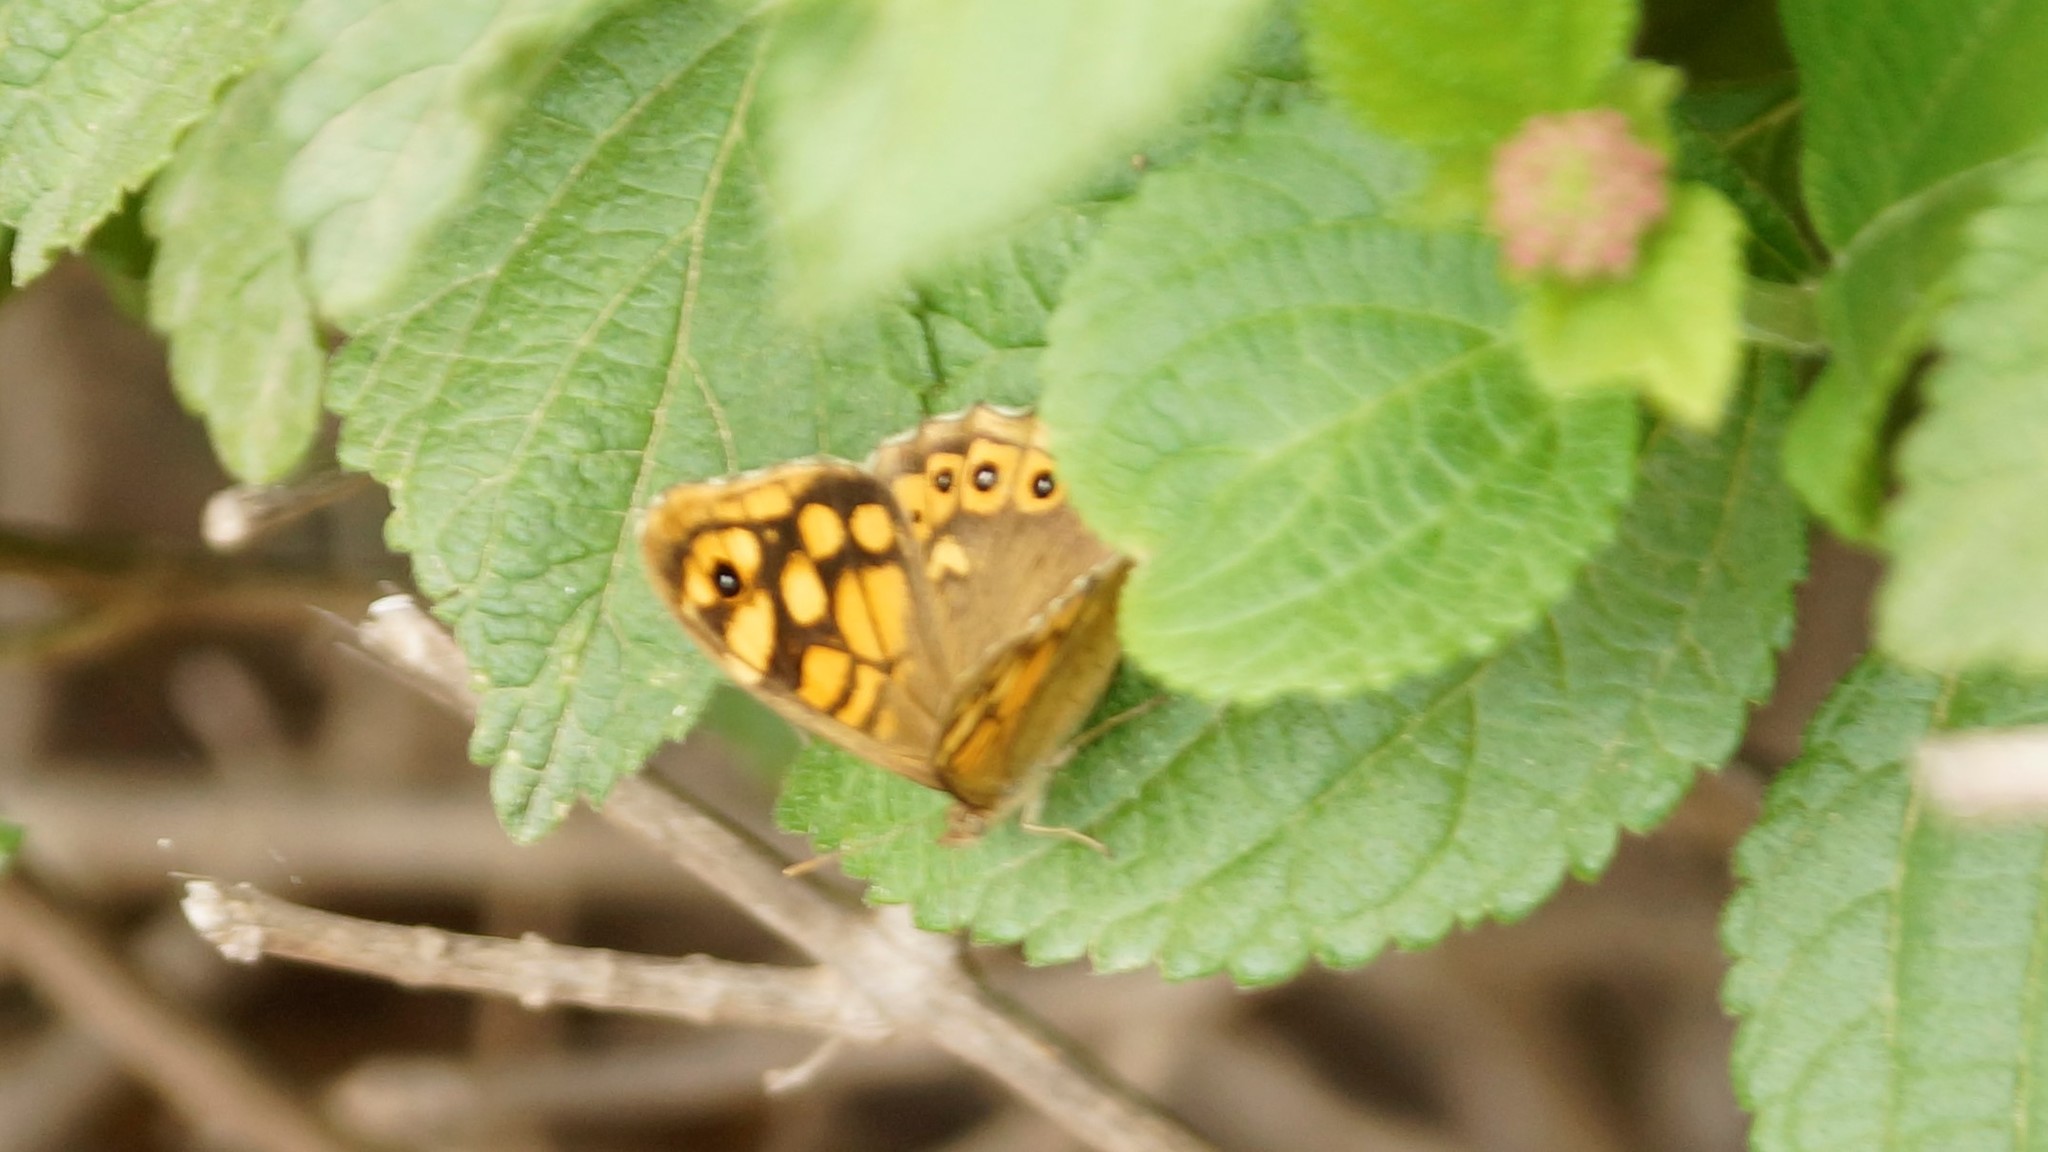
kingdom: Animalia
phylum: Arthropoda
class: Insecta
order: Lepidoptera
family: Nymphalidae
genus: Pararge
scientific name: Pararge aegeria
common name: Speckled wood
